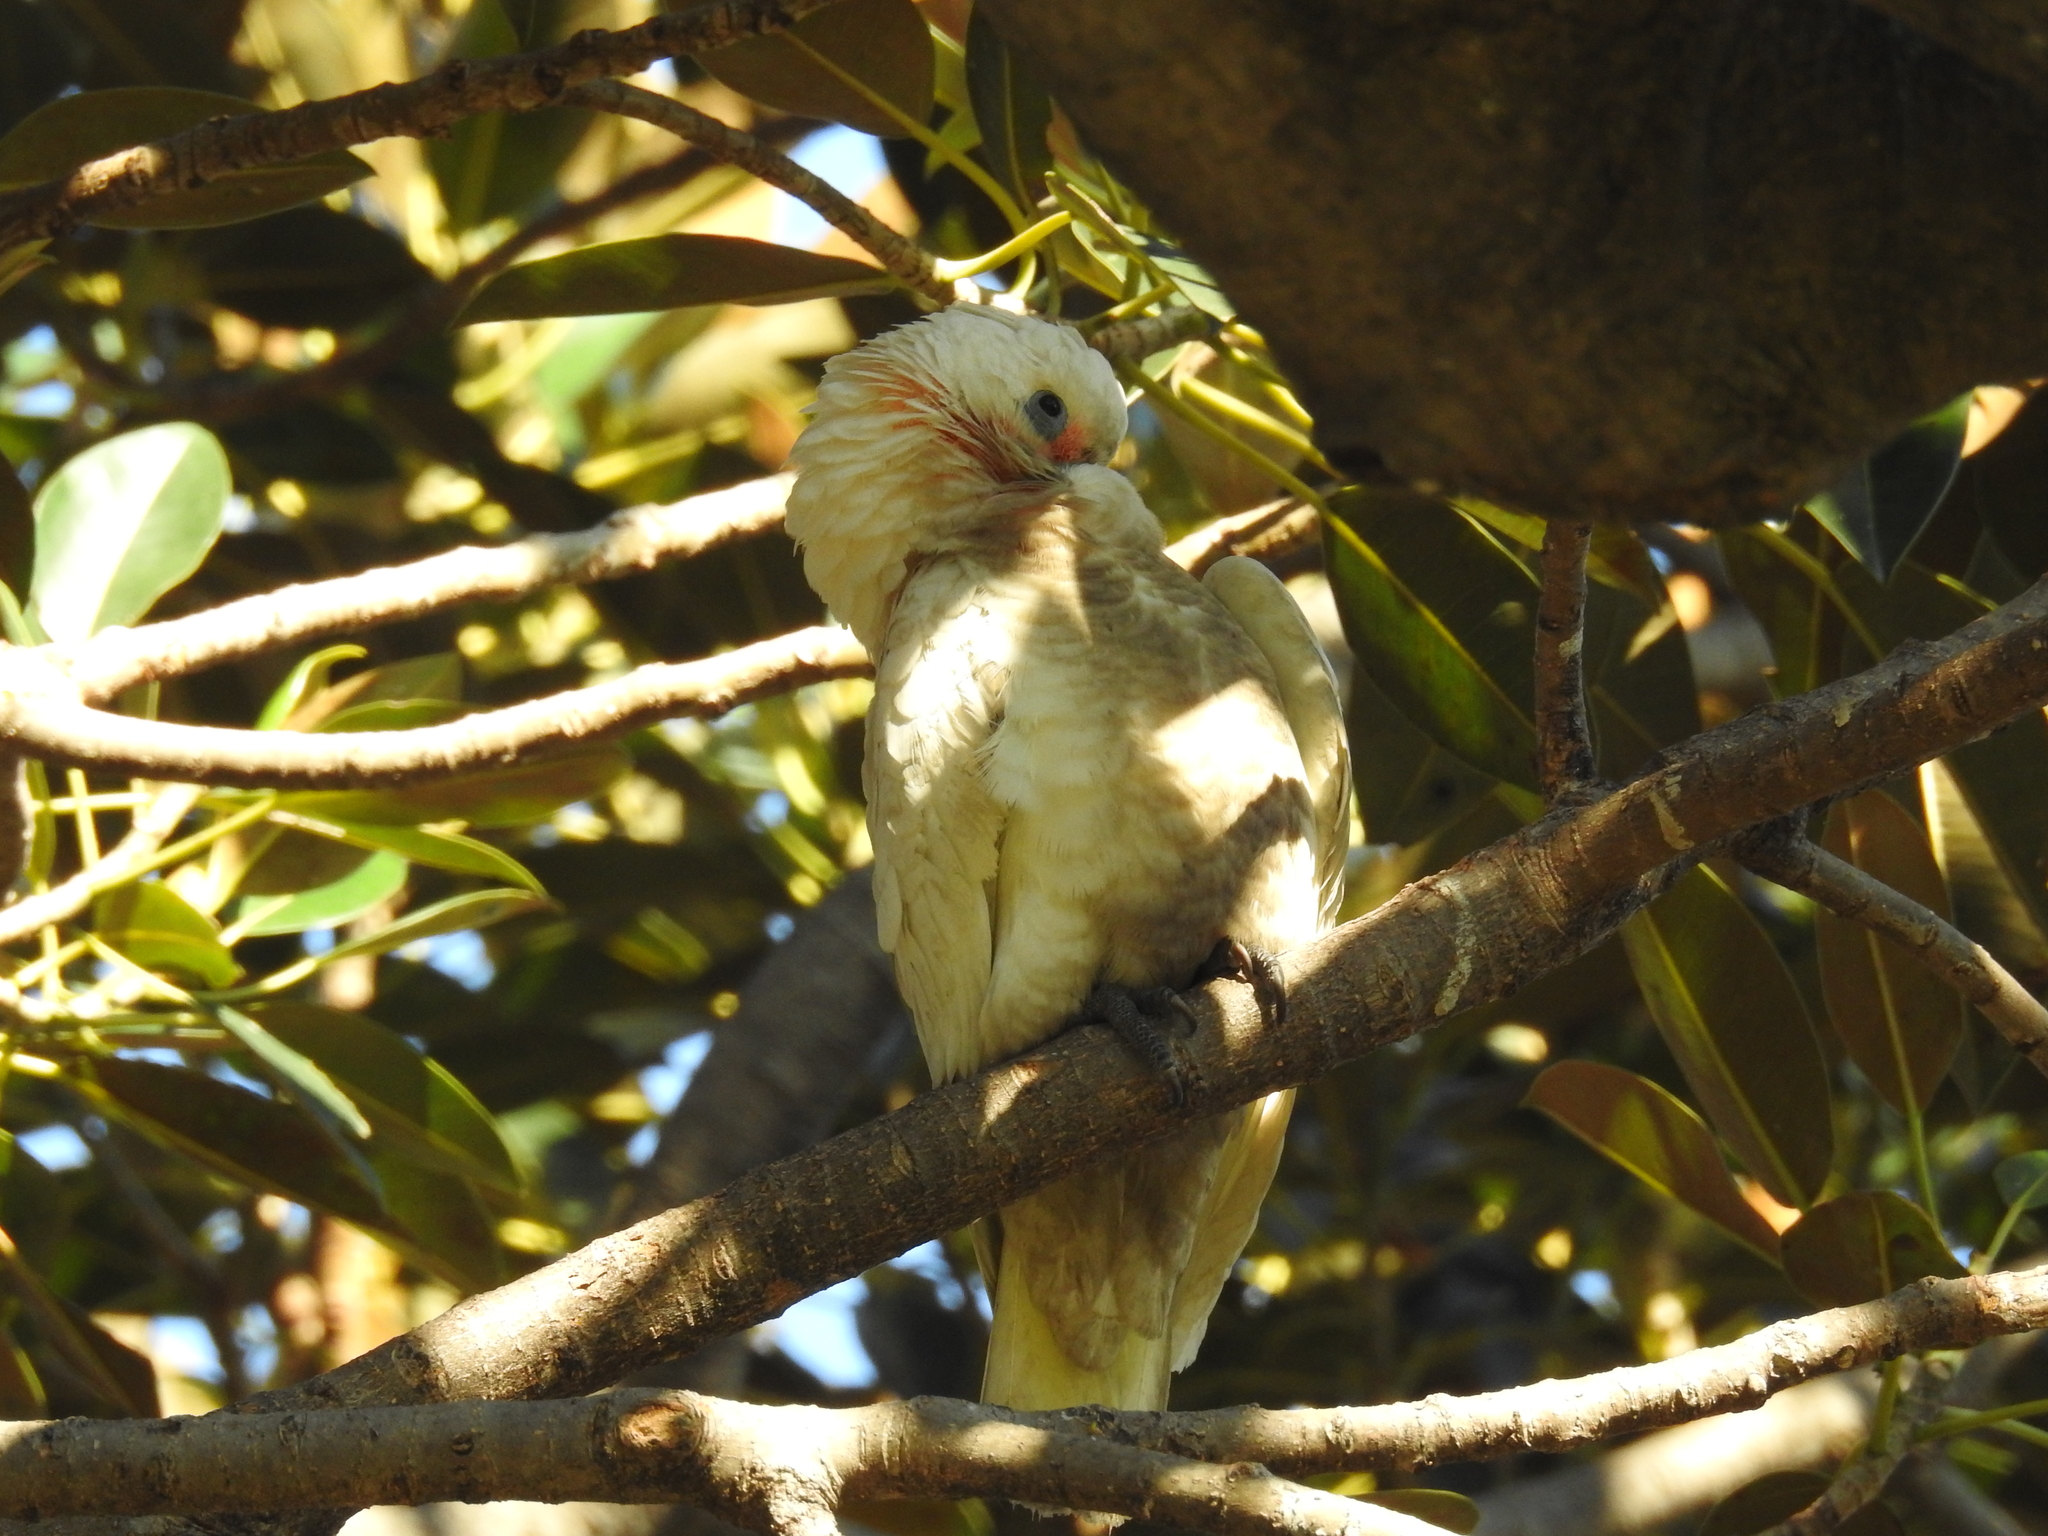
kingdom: Animalia
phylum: Chordata
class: Aves
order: Psittaciformes
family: Psittacidae
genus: Cacatua
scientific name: Cacatua tenuirostris
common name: Long-billed corella
